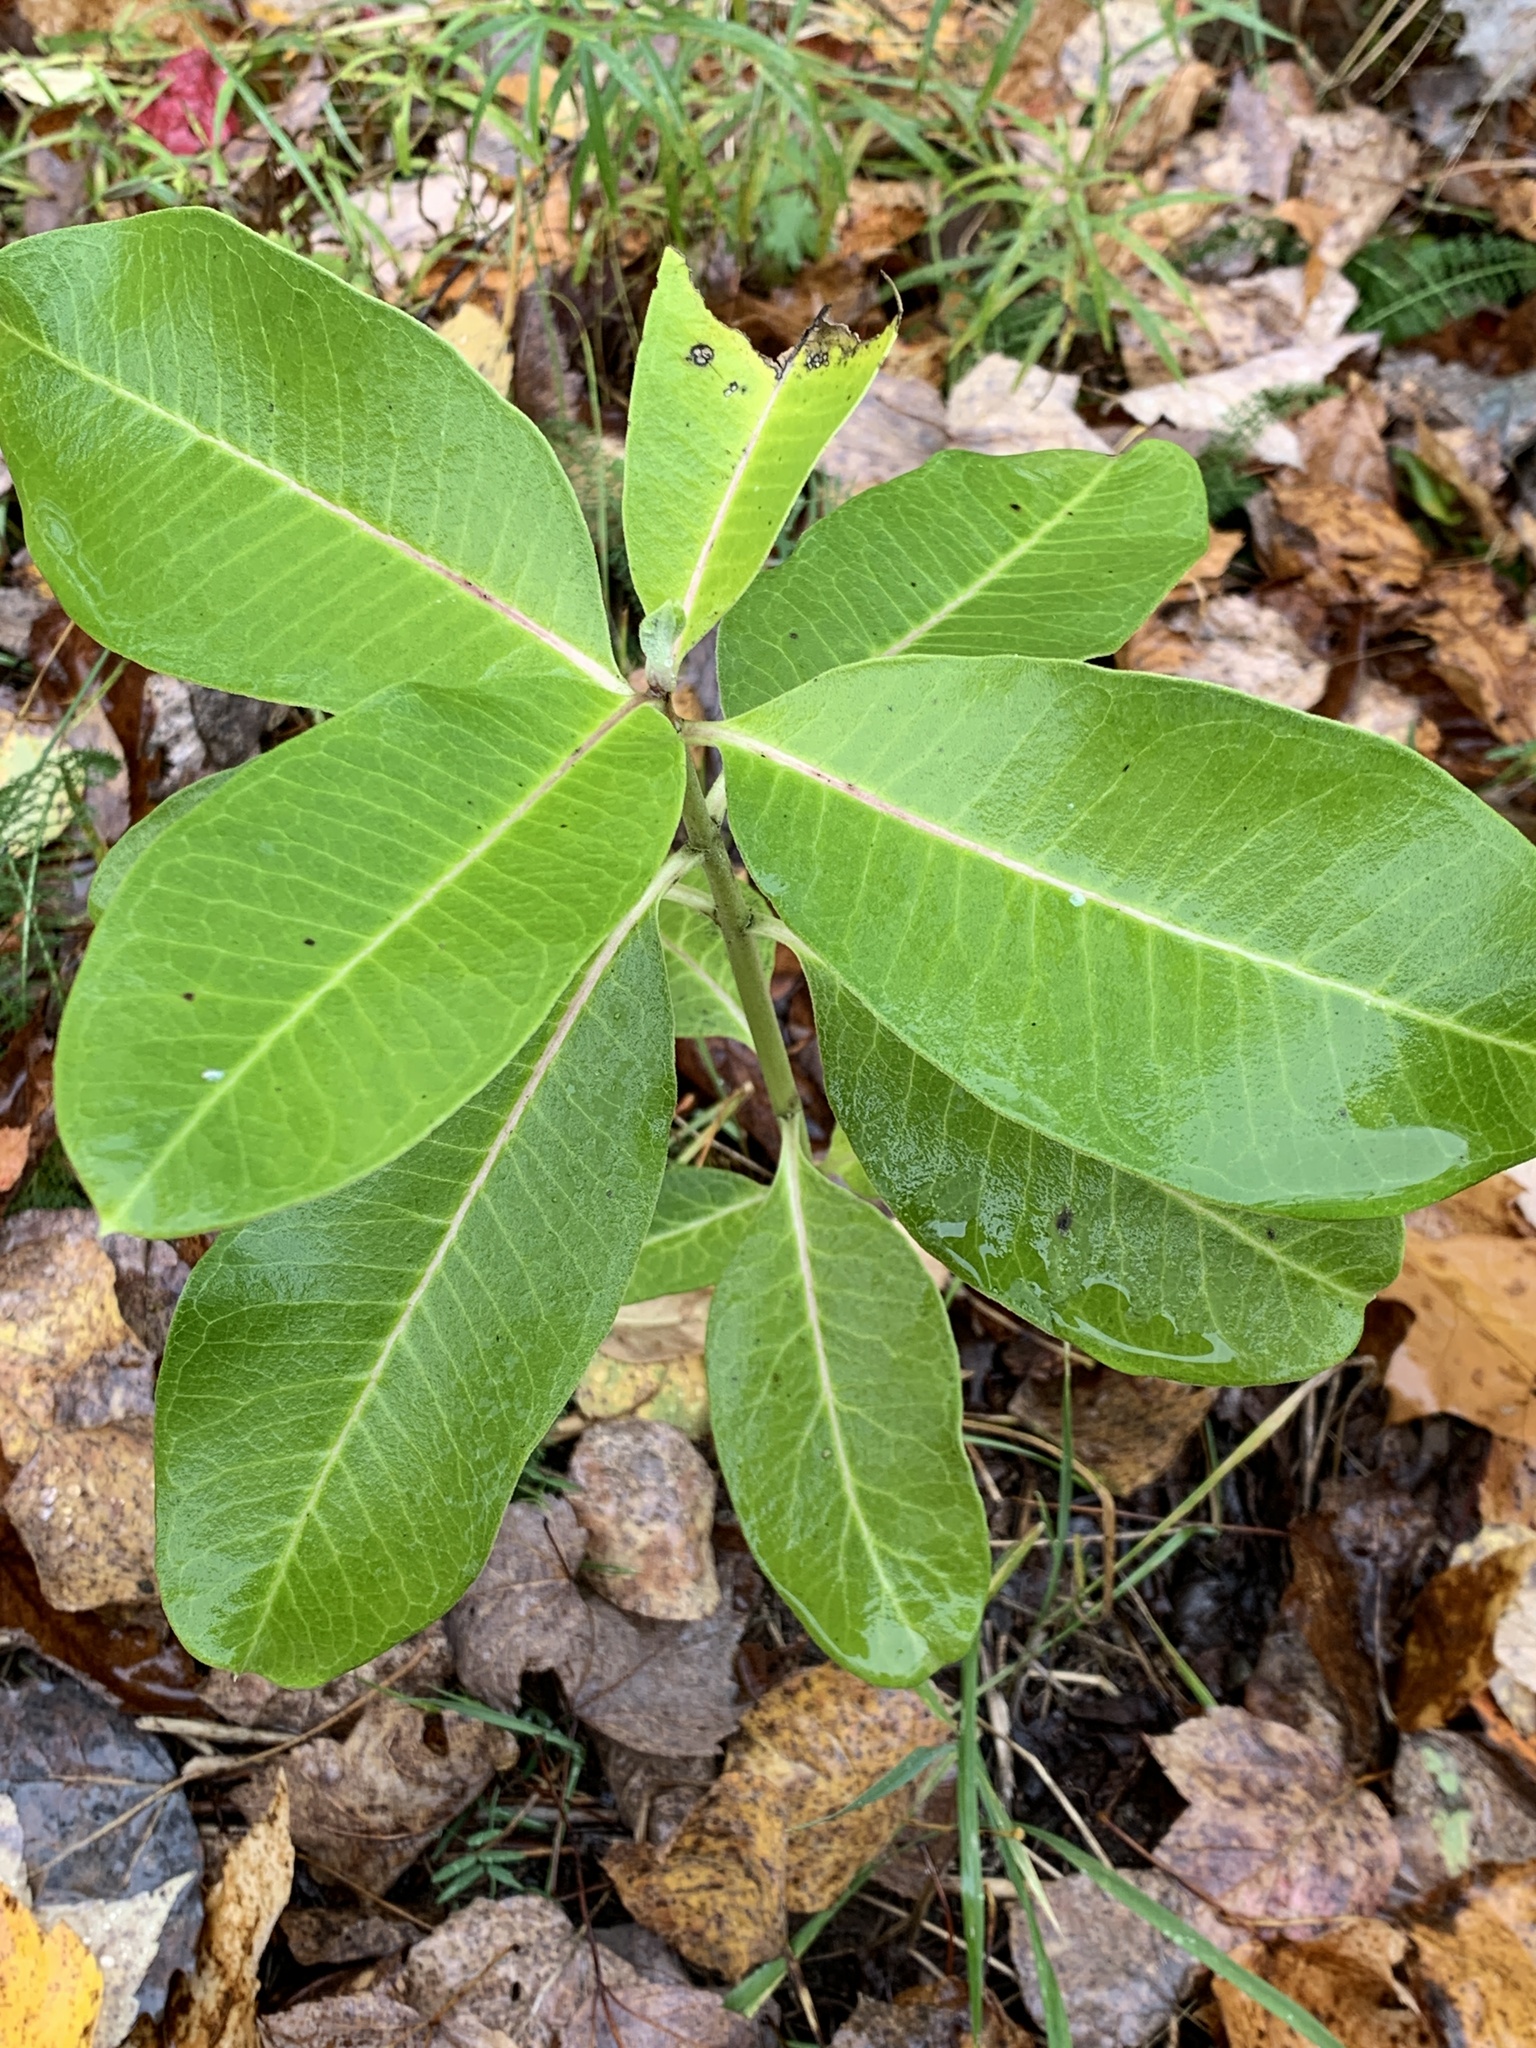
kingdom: Plantae
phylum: Tracheophyta
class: Magnoliopsida
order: Gentianales
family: Apocynaceae
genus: Asclepias
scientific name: Asclepias syriaca
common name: Common milkweed
